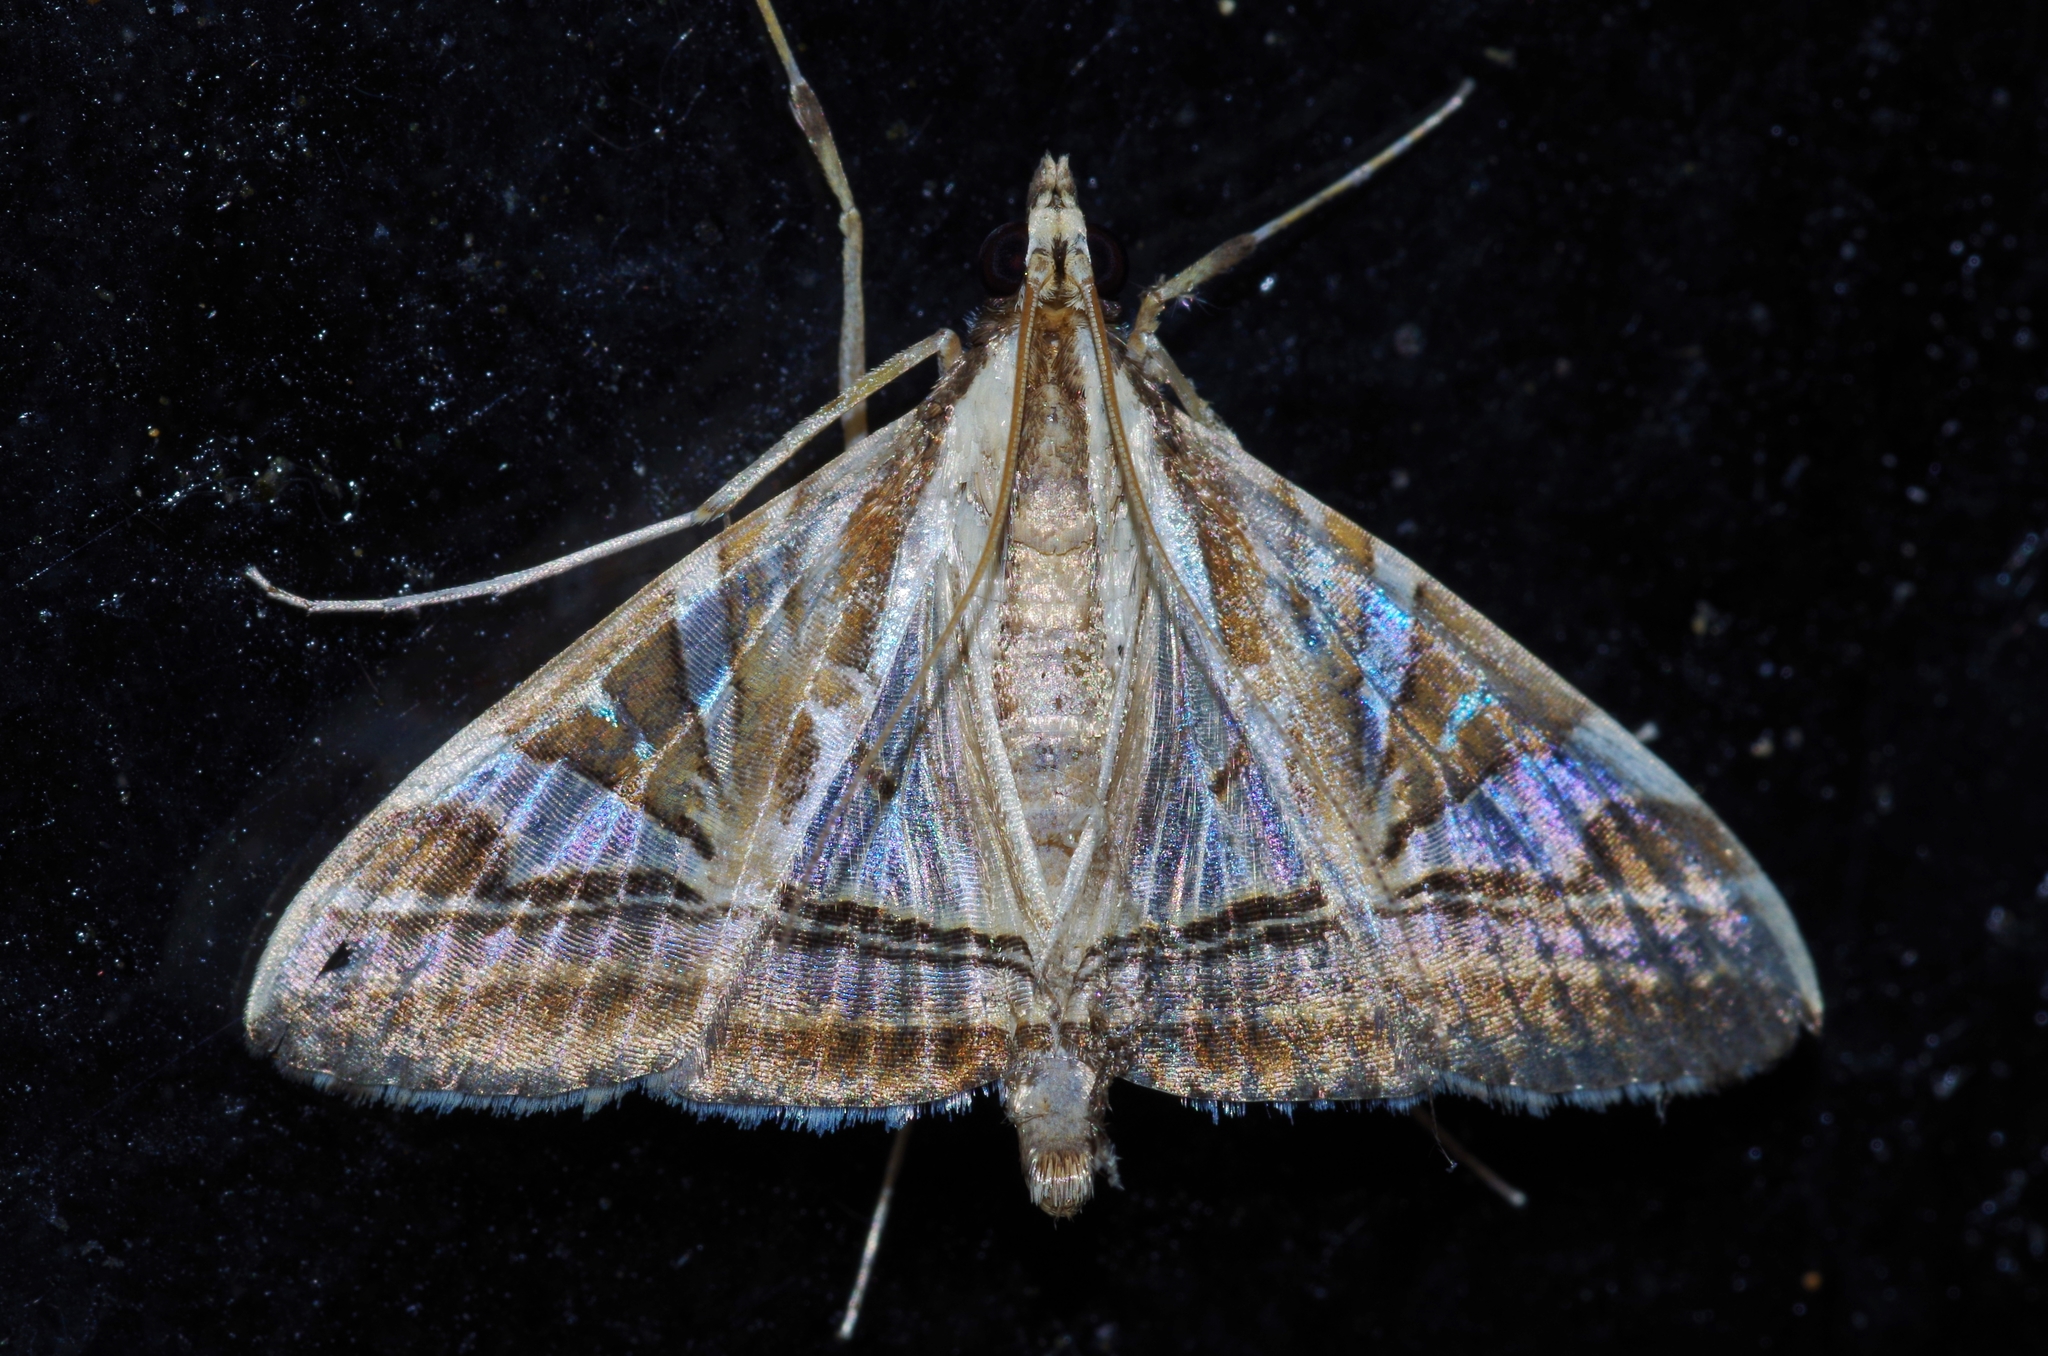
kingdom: Animalia
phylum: Arthropoda
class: Insecta
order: Lepidoptera
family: Crambidae
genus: Agrioglypta
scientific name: Agrioglypta itysalis
